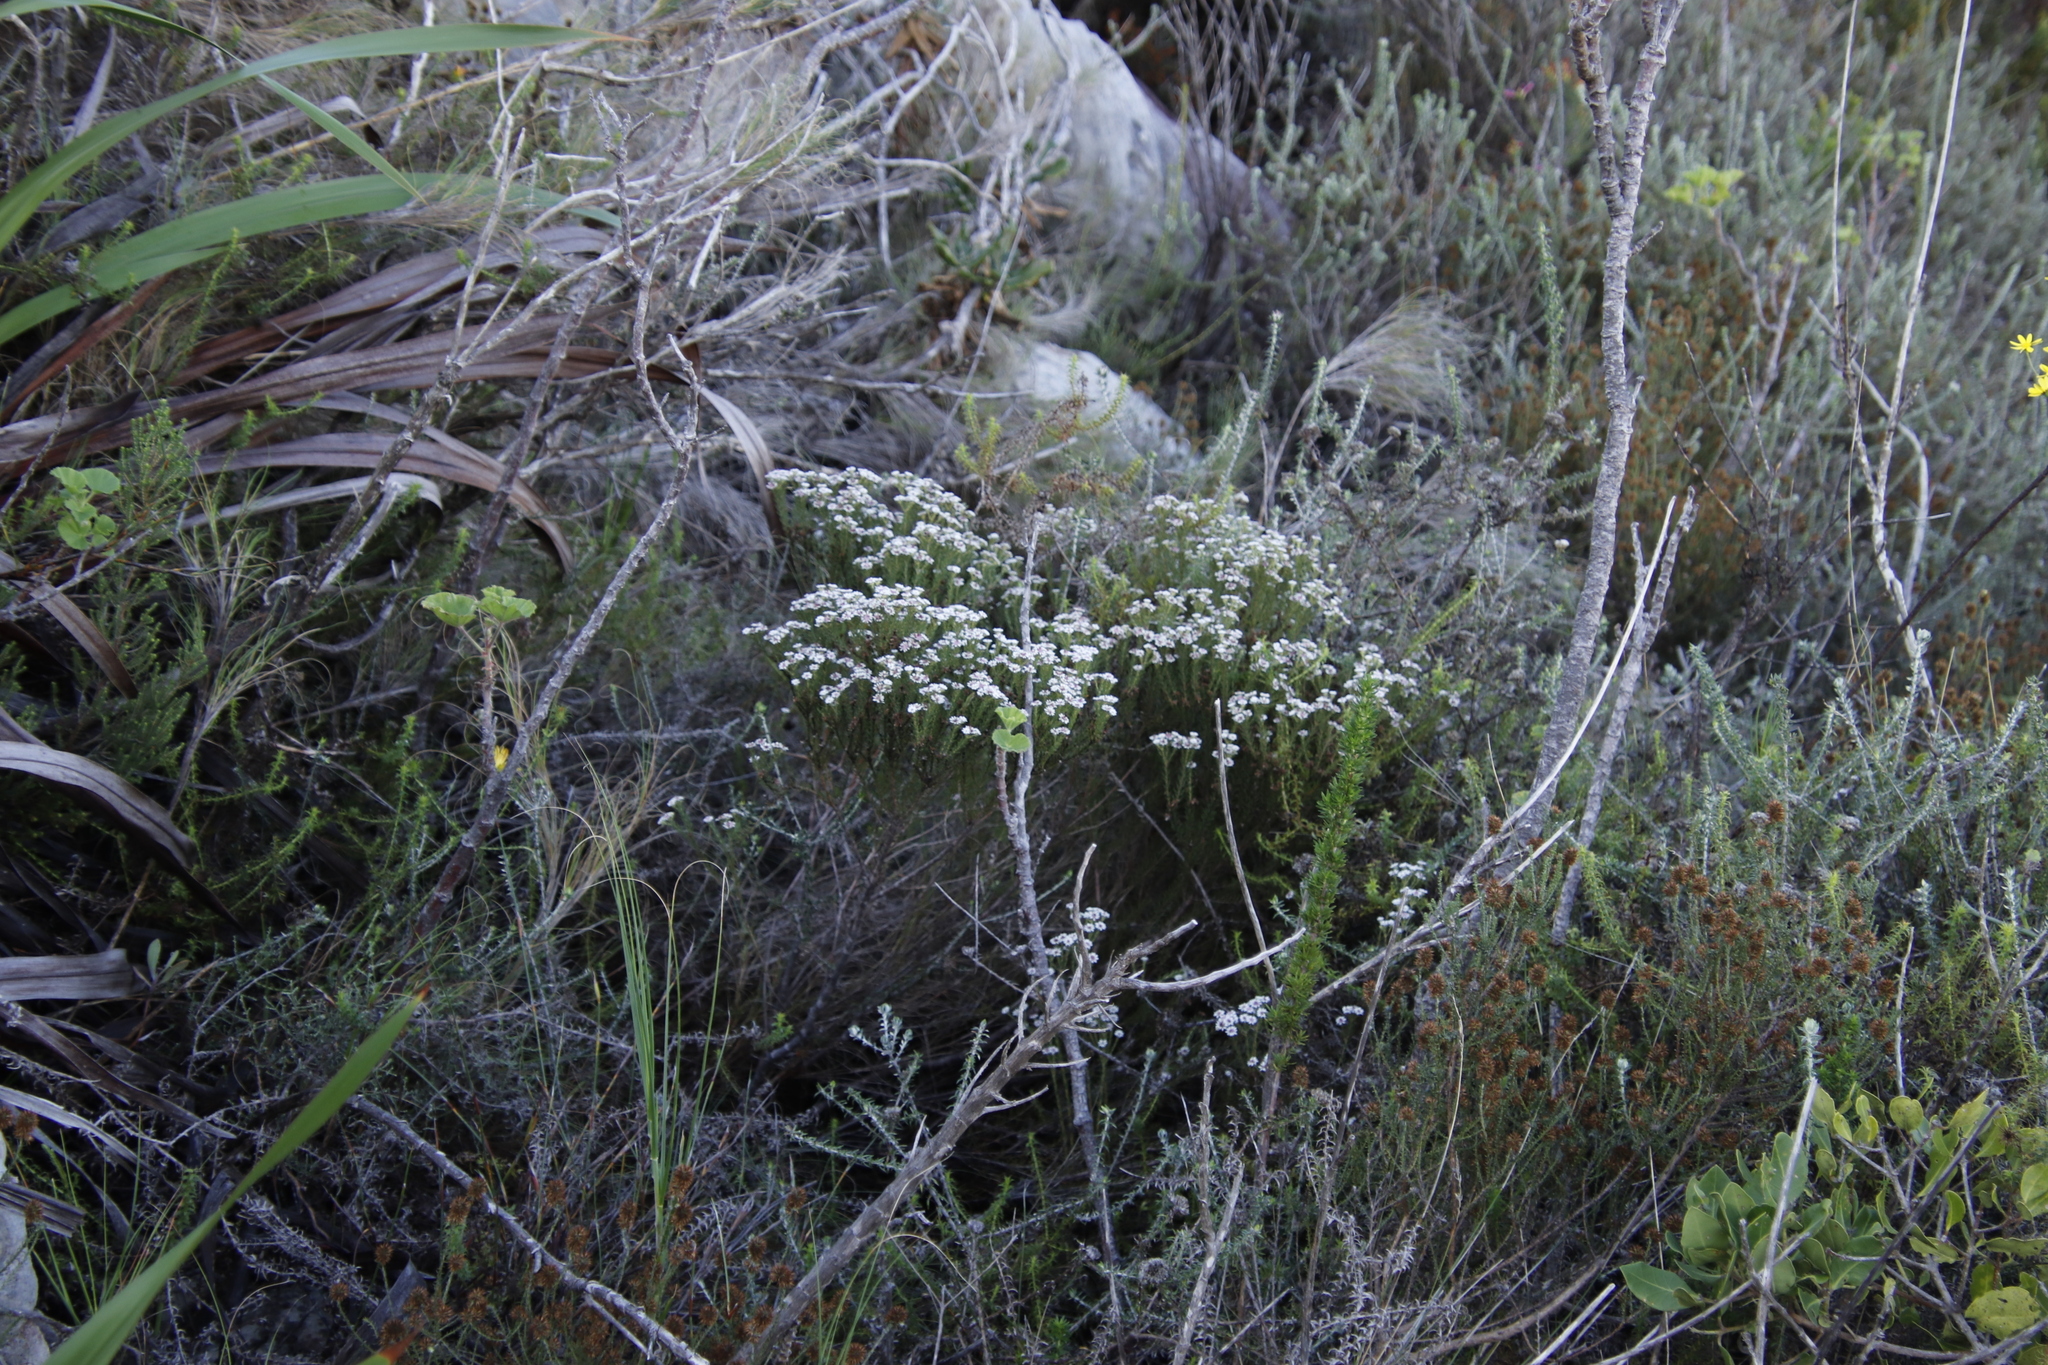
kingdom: Plantae
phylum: Tracheophyta
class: Magnoliopsida
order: Bruniales
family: Bruniaceae
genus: Staavia
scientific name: Staavia radiata
